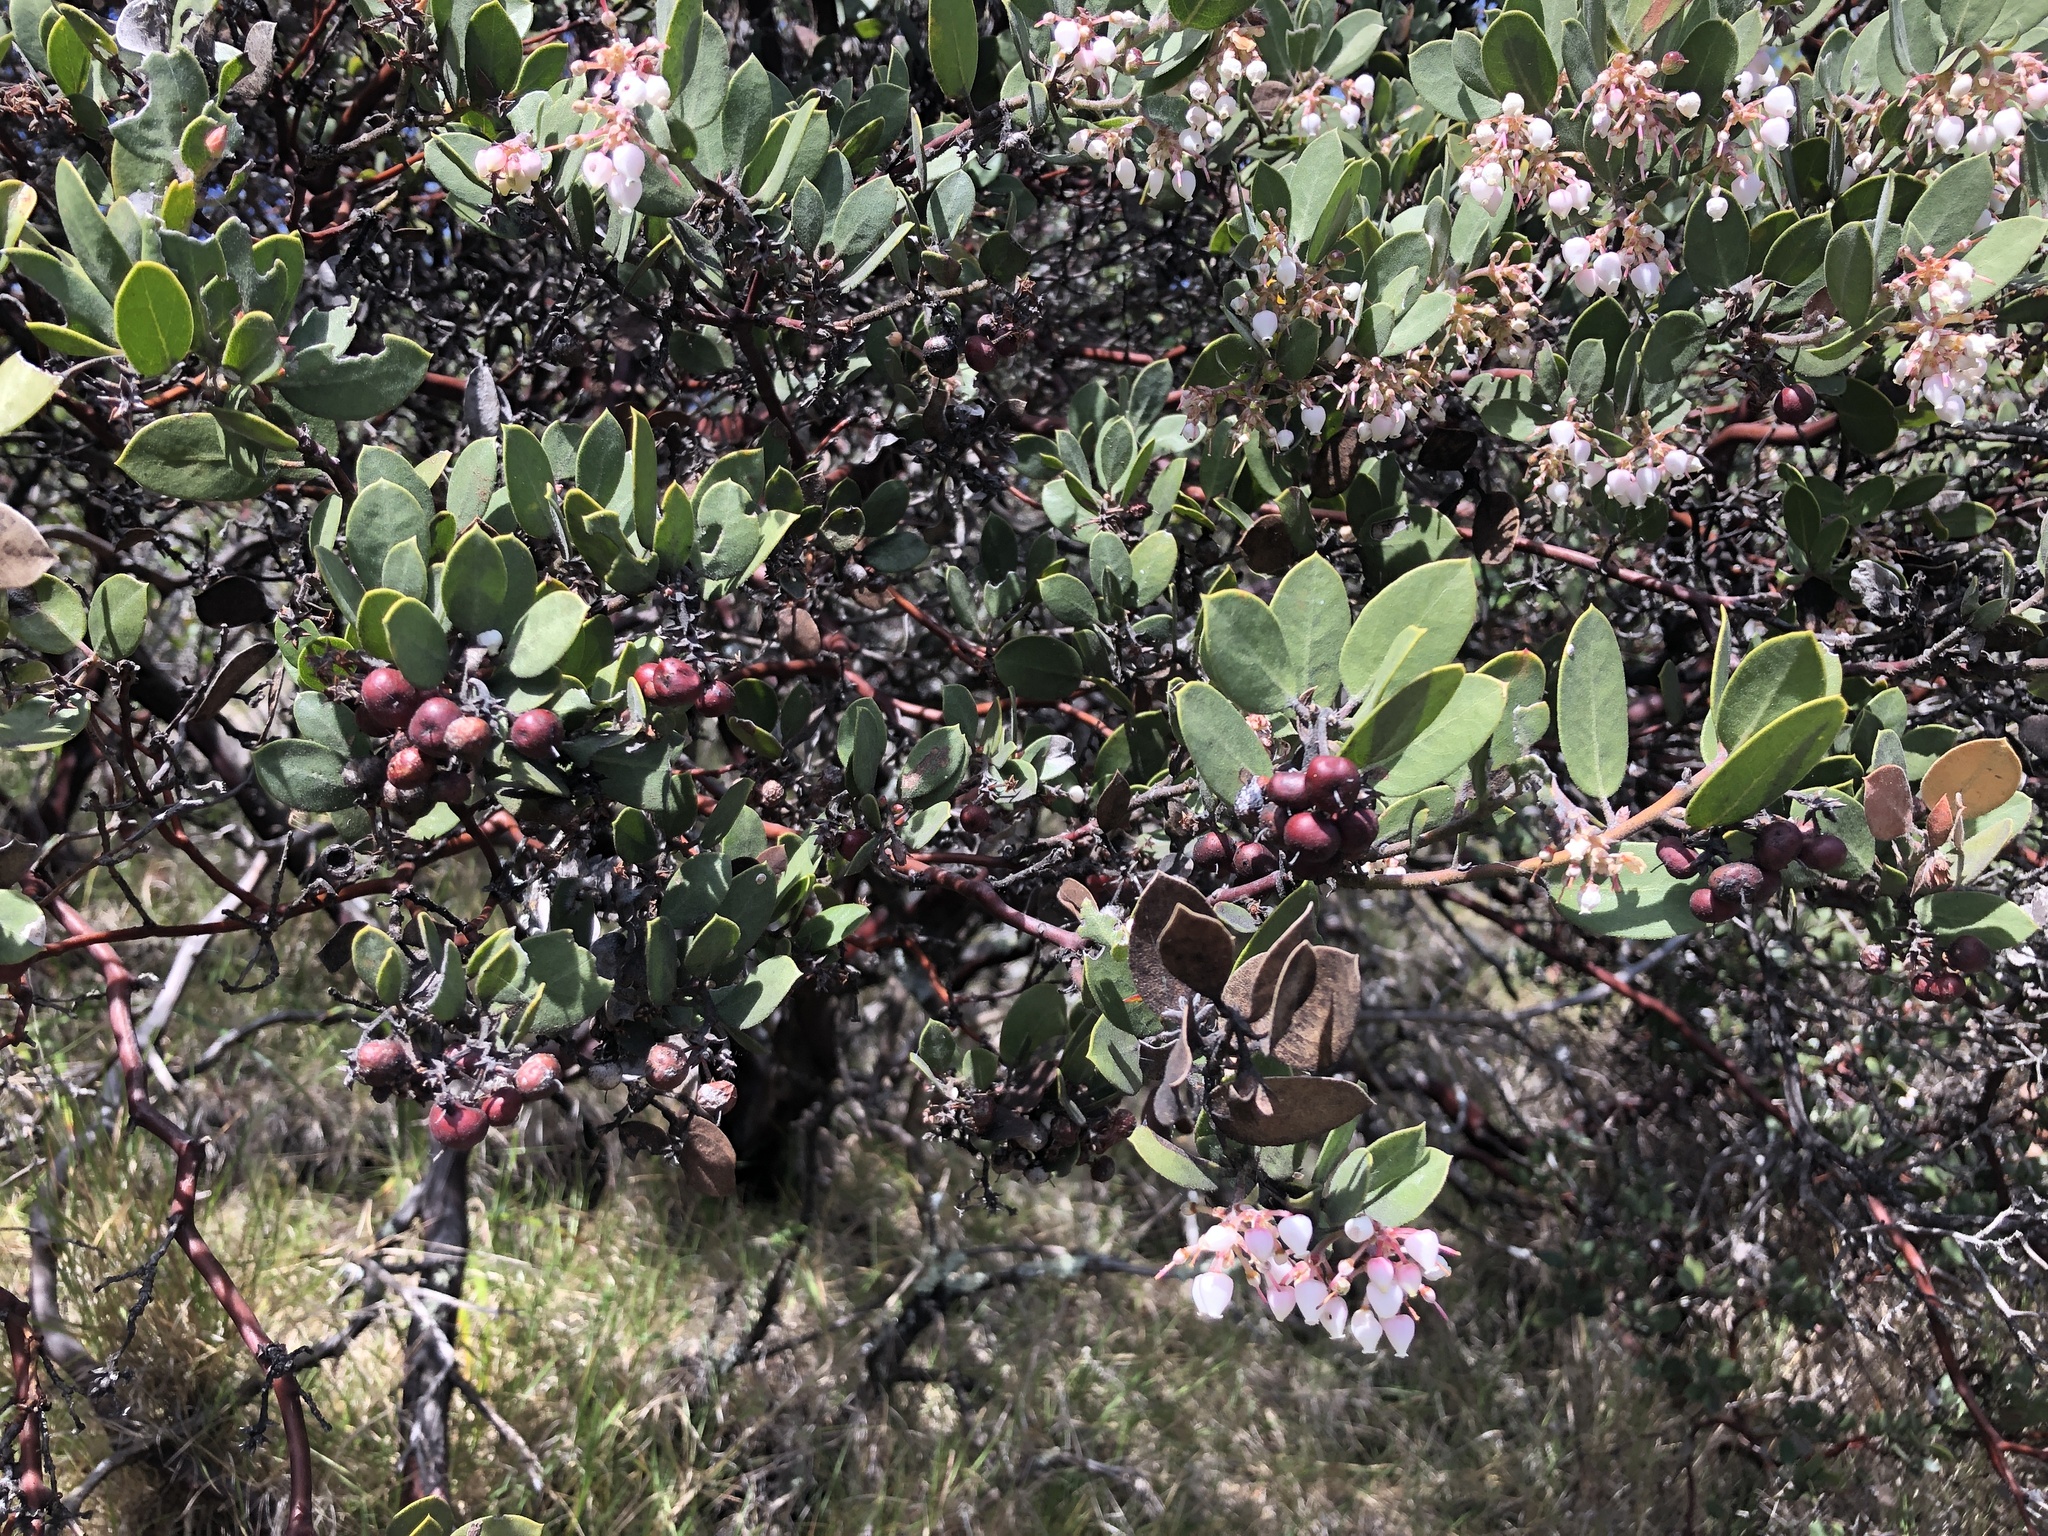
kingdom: Plantae
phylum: Tracheophyta
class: Magnoliopsida
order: Ericales
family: Ericaceae
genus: Arctostaphylos
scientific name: Arctostaphylos glandulosa
